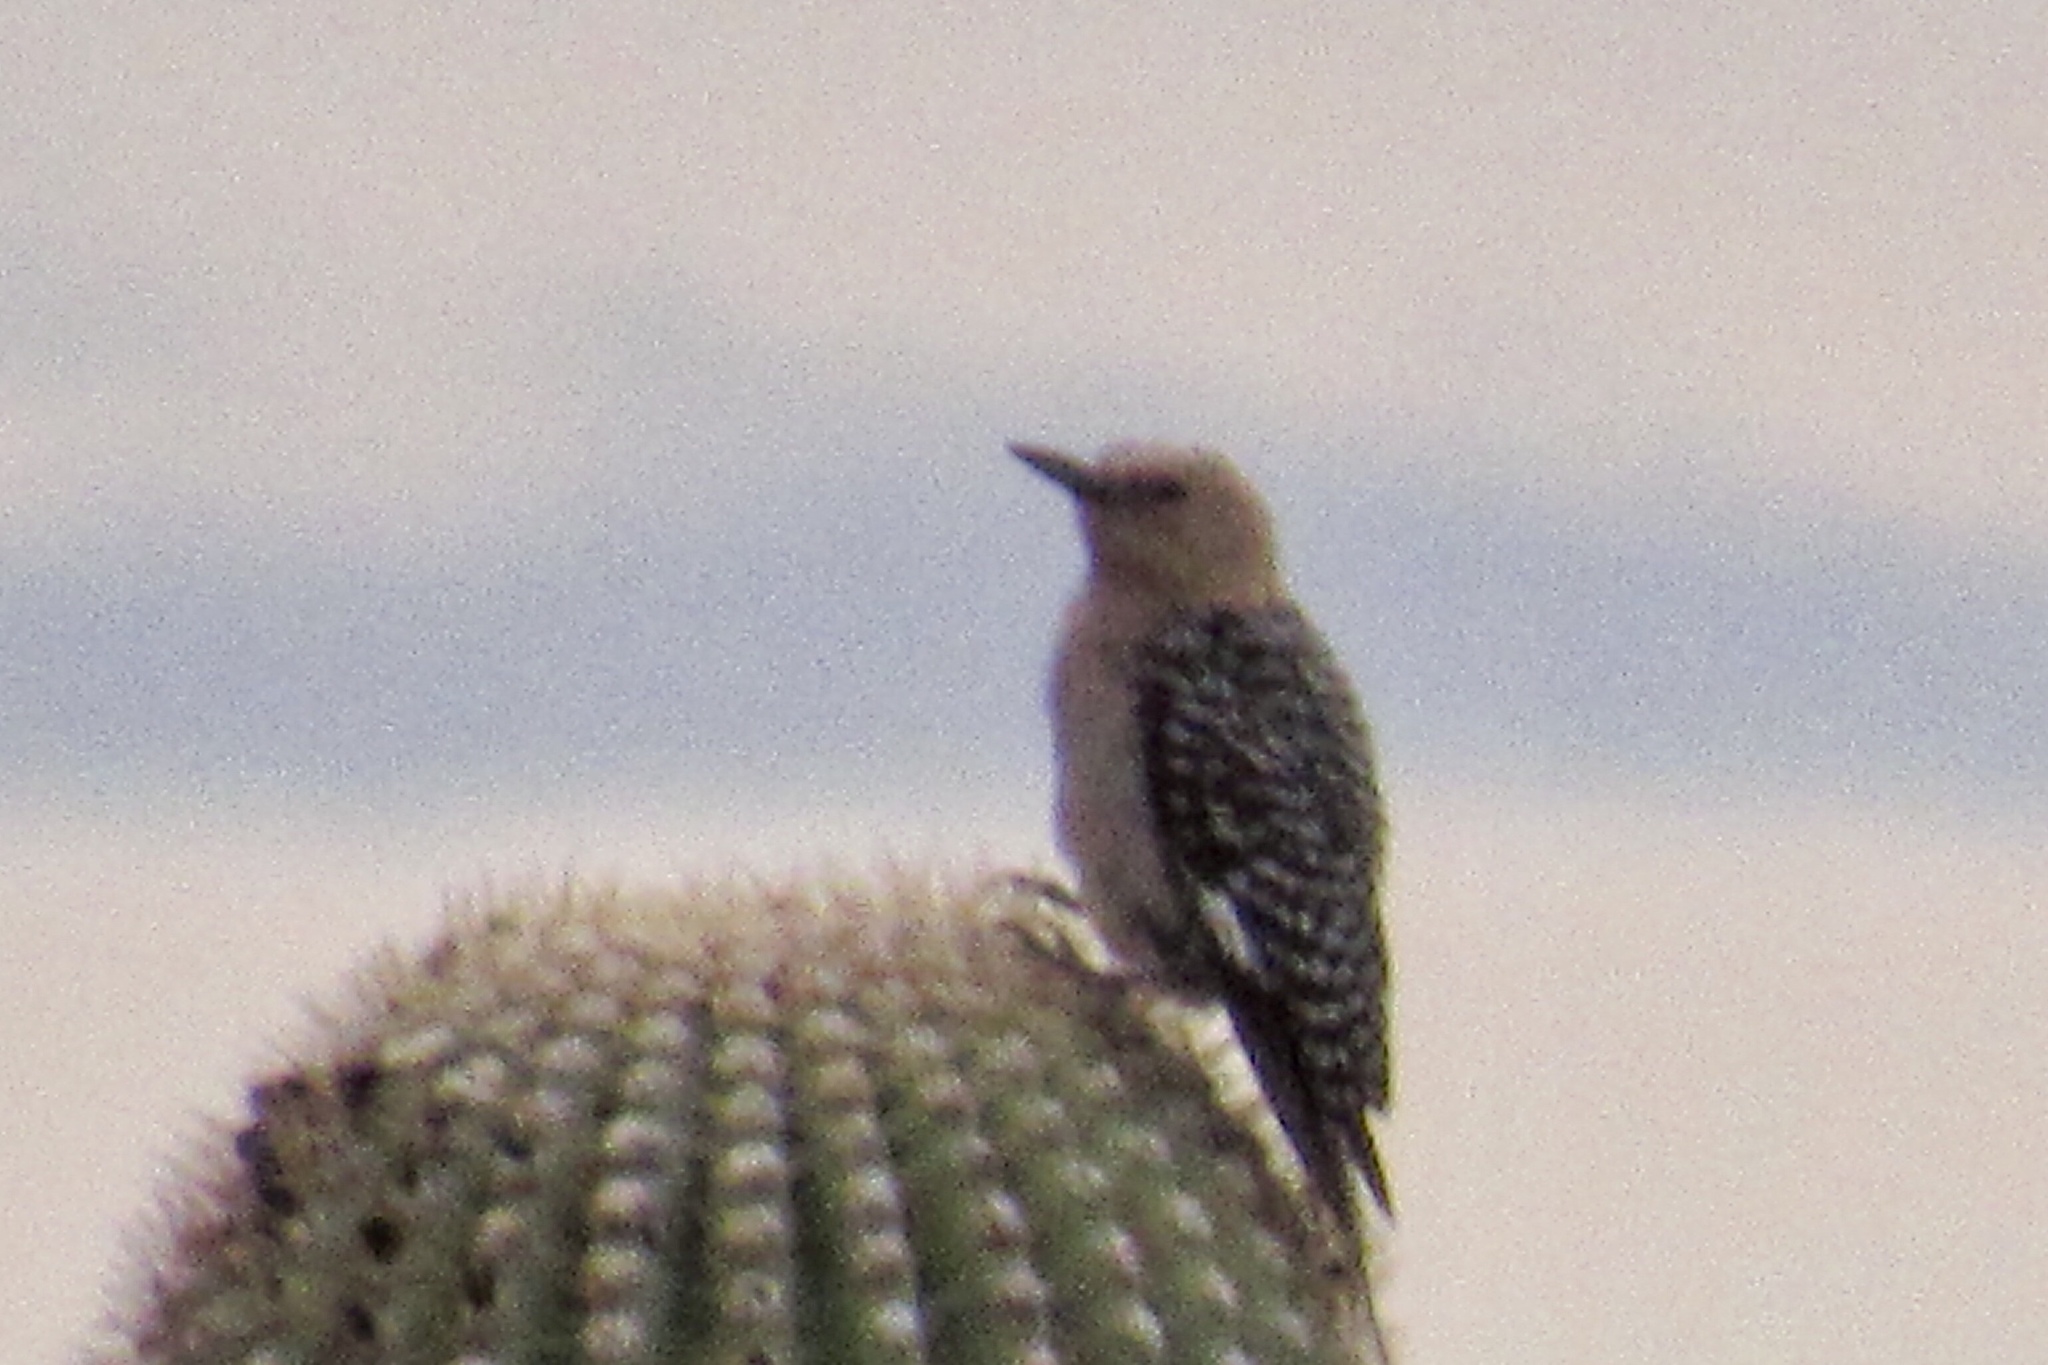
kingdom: Animalia
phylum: Chordata
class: Aves
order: Piciformes
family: Picidae
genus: Melanerpes
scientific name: Melanerpes uropygialis
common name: Gila woodpecker
